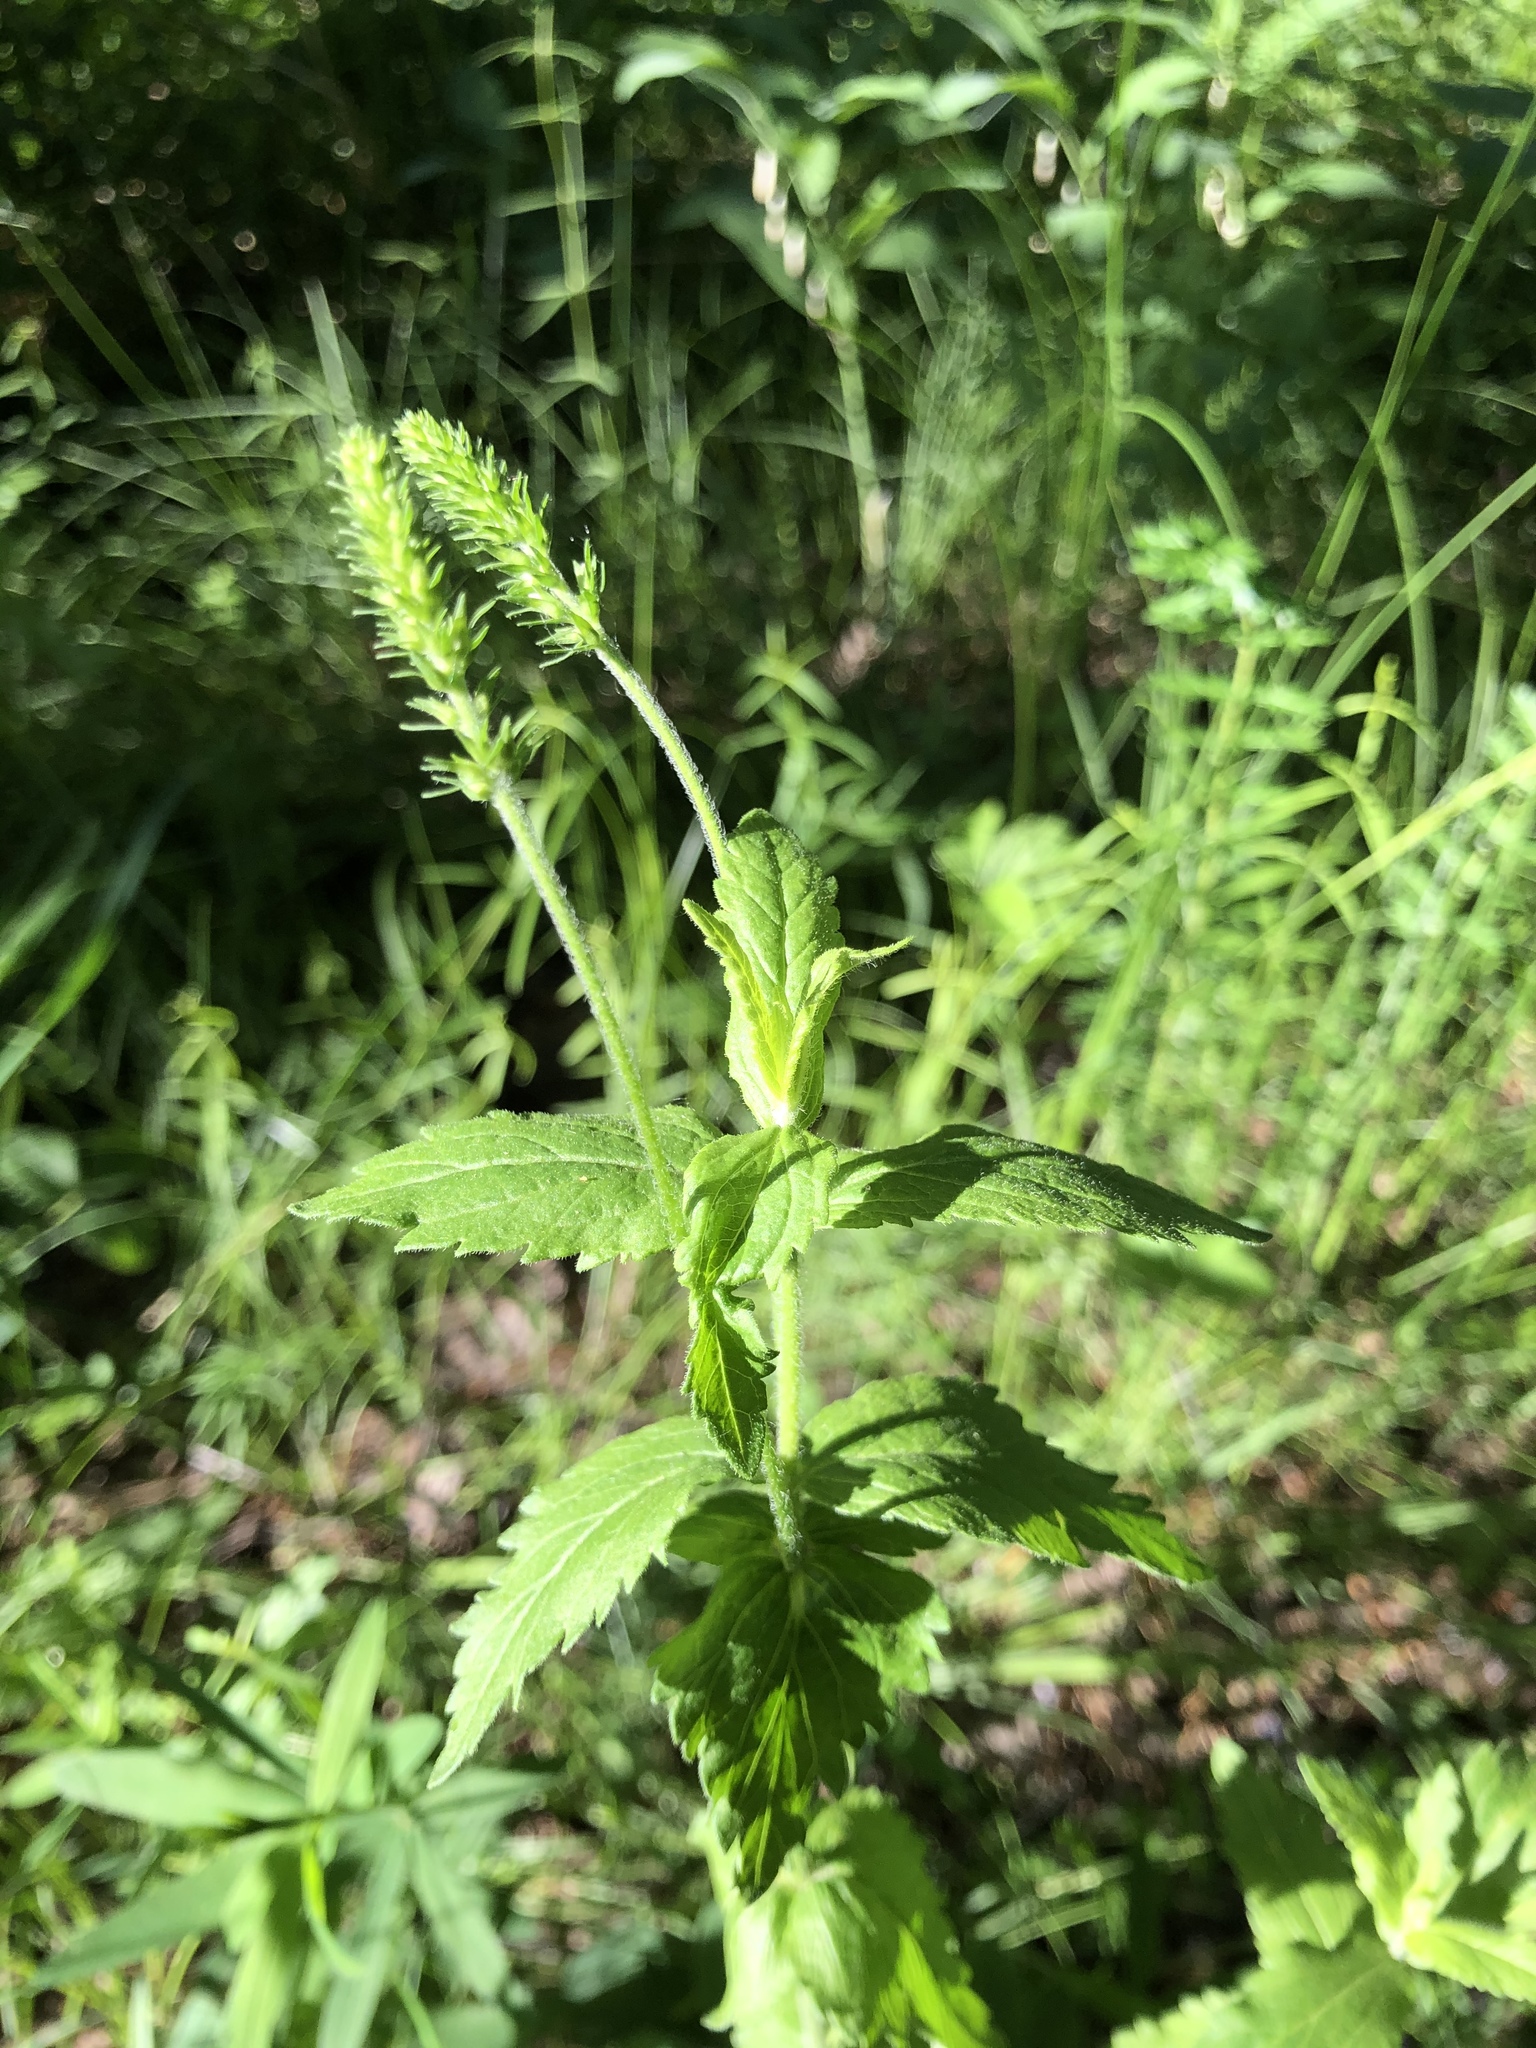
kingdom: Plantae
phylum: Tracheophyta
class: Magnoliopsida
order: Lamiales
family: Plantaginaceae
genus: Veronica
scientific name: Veronica teucrium
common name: Large speedwell
